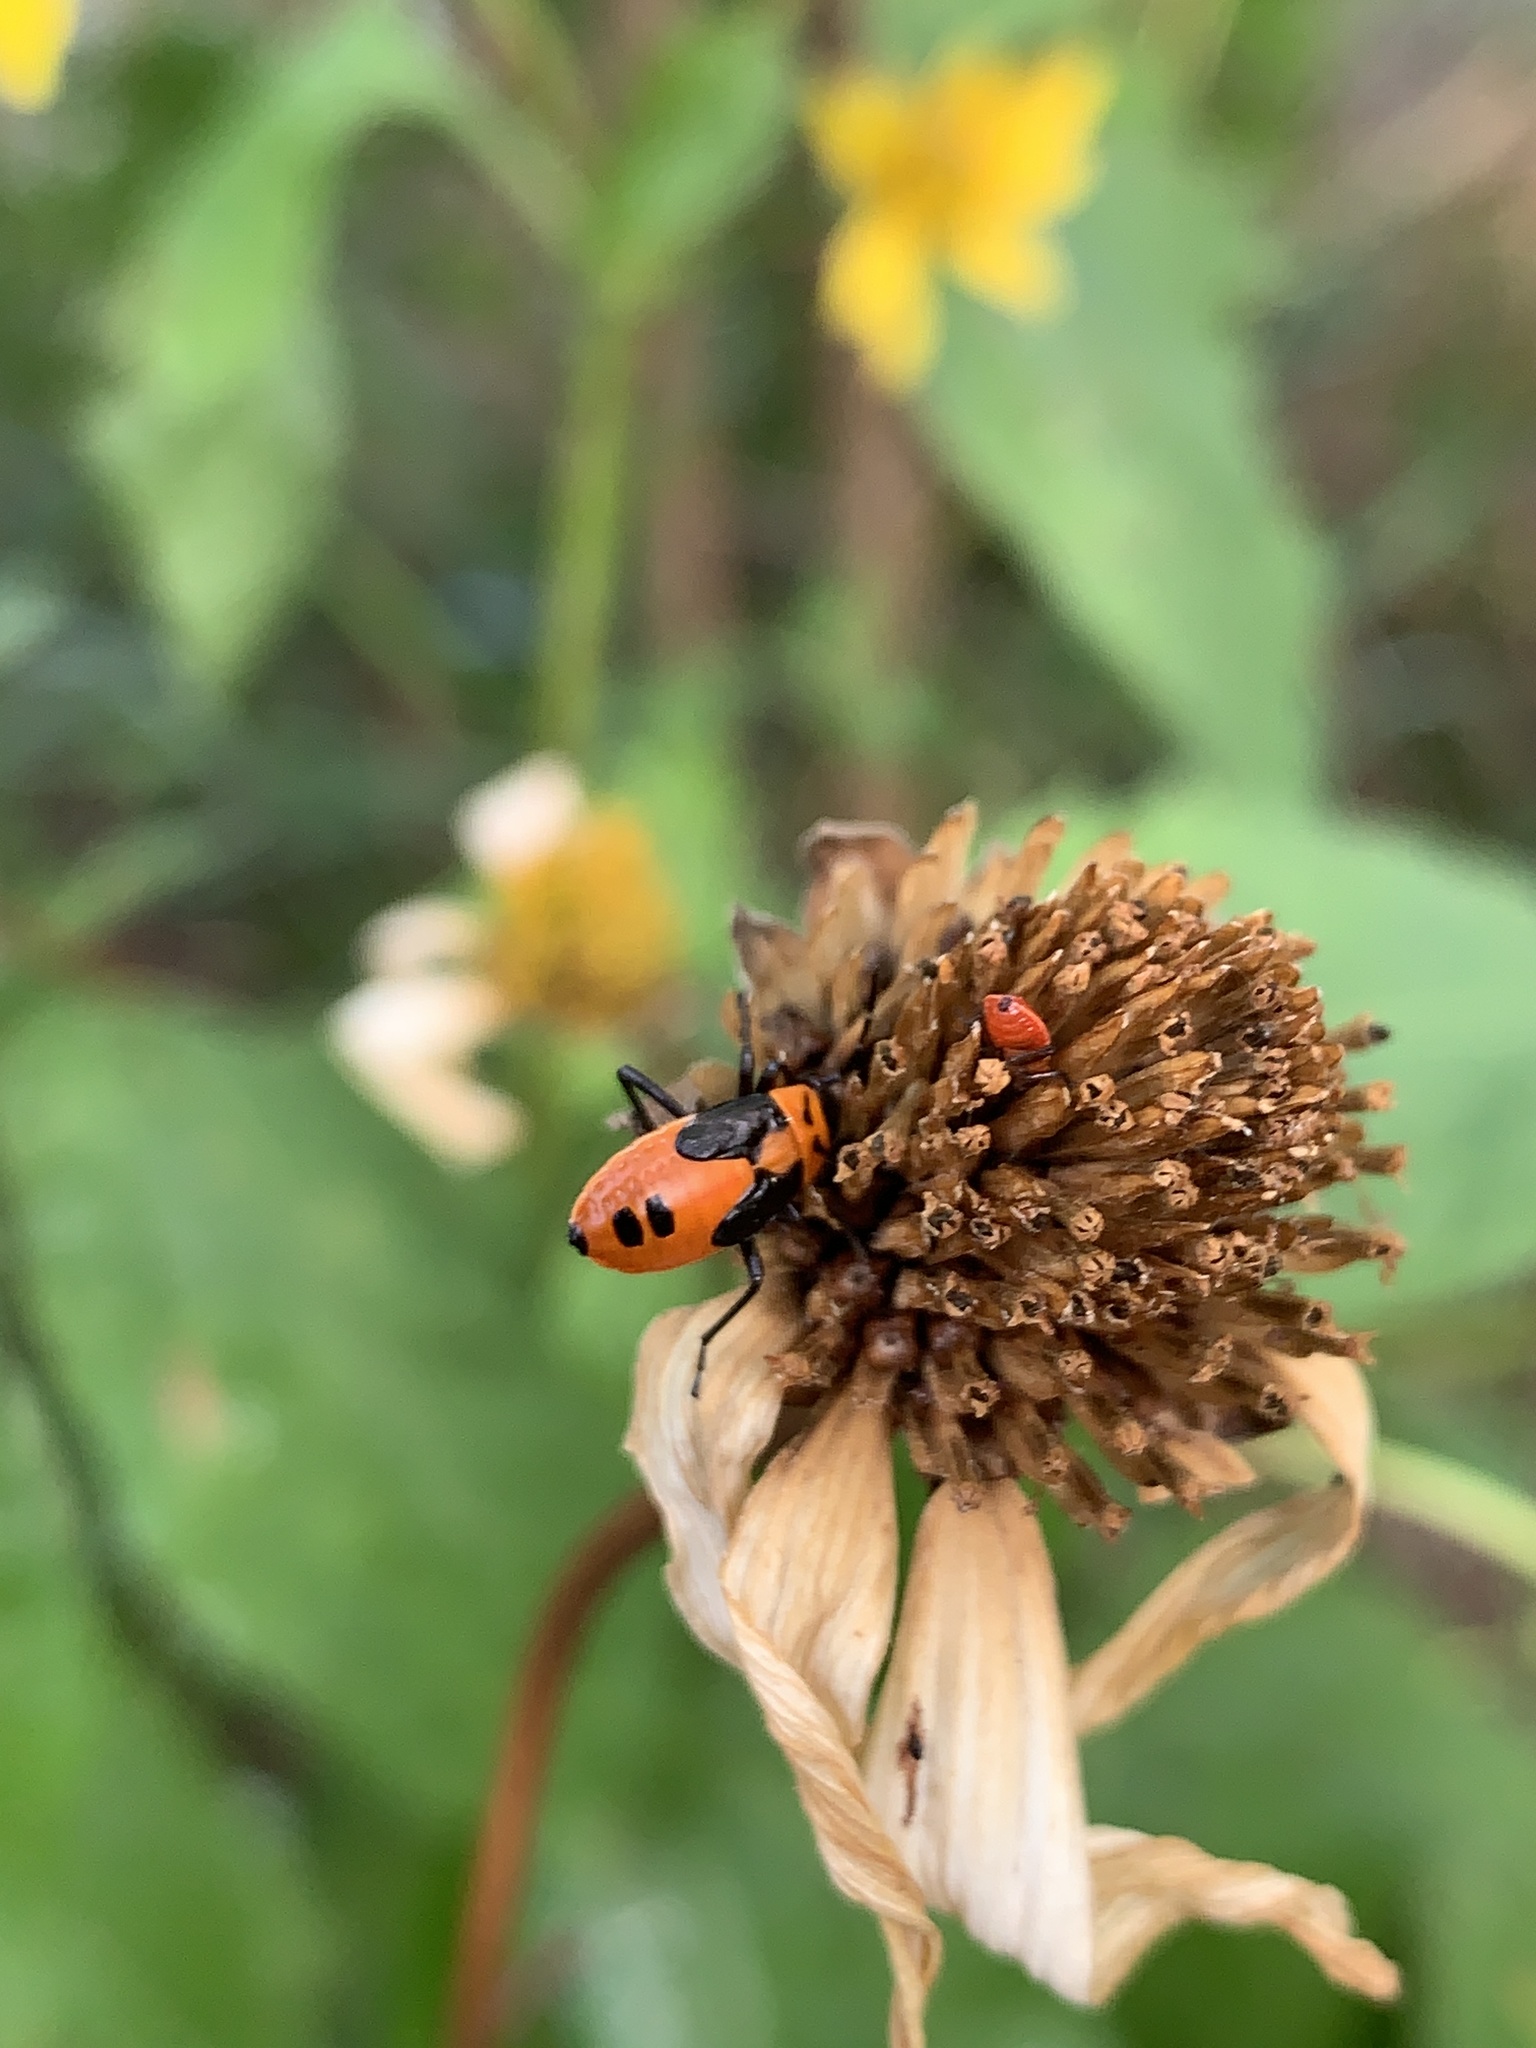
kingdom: Animalia
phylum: Arthropoda
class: Insecta
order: Hemiptera
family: Lygaeidae
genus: Lygaeus
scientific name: Lygaeus turcicus
